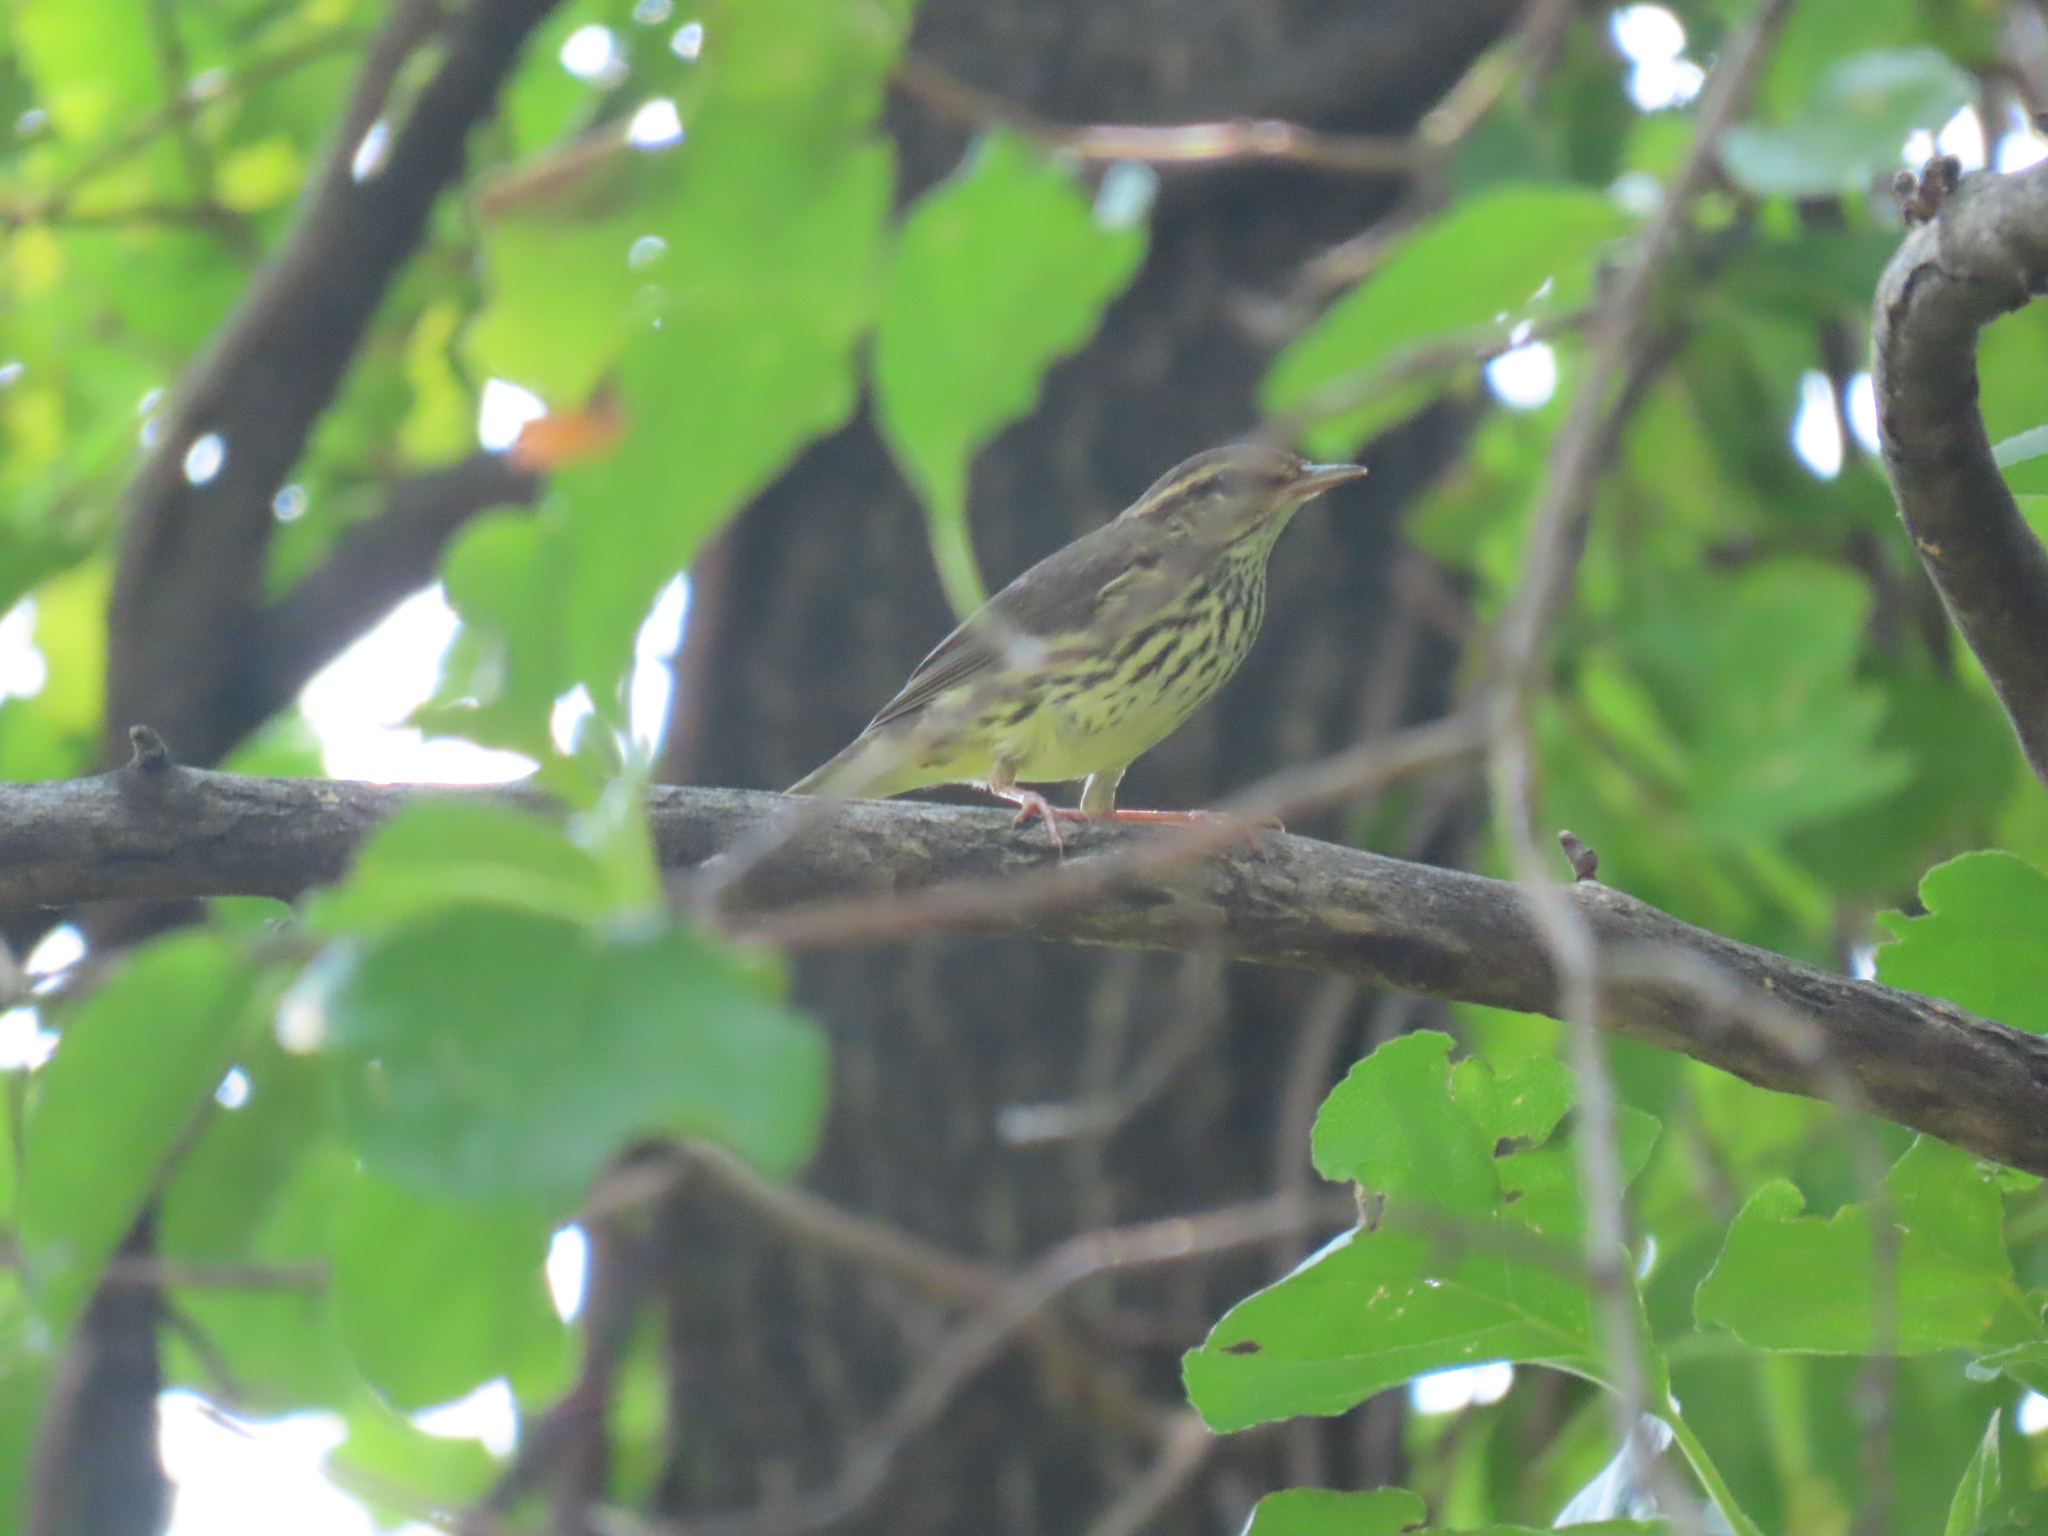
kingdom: Animalia
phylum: Chordata
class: Aves
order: Passeriformes
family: Parulidae
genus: Parkesia
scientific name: Parkesia noveboracensis
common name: Northern waterthrush
